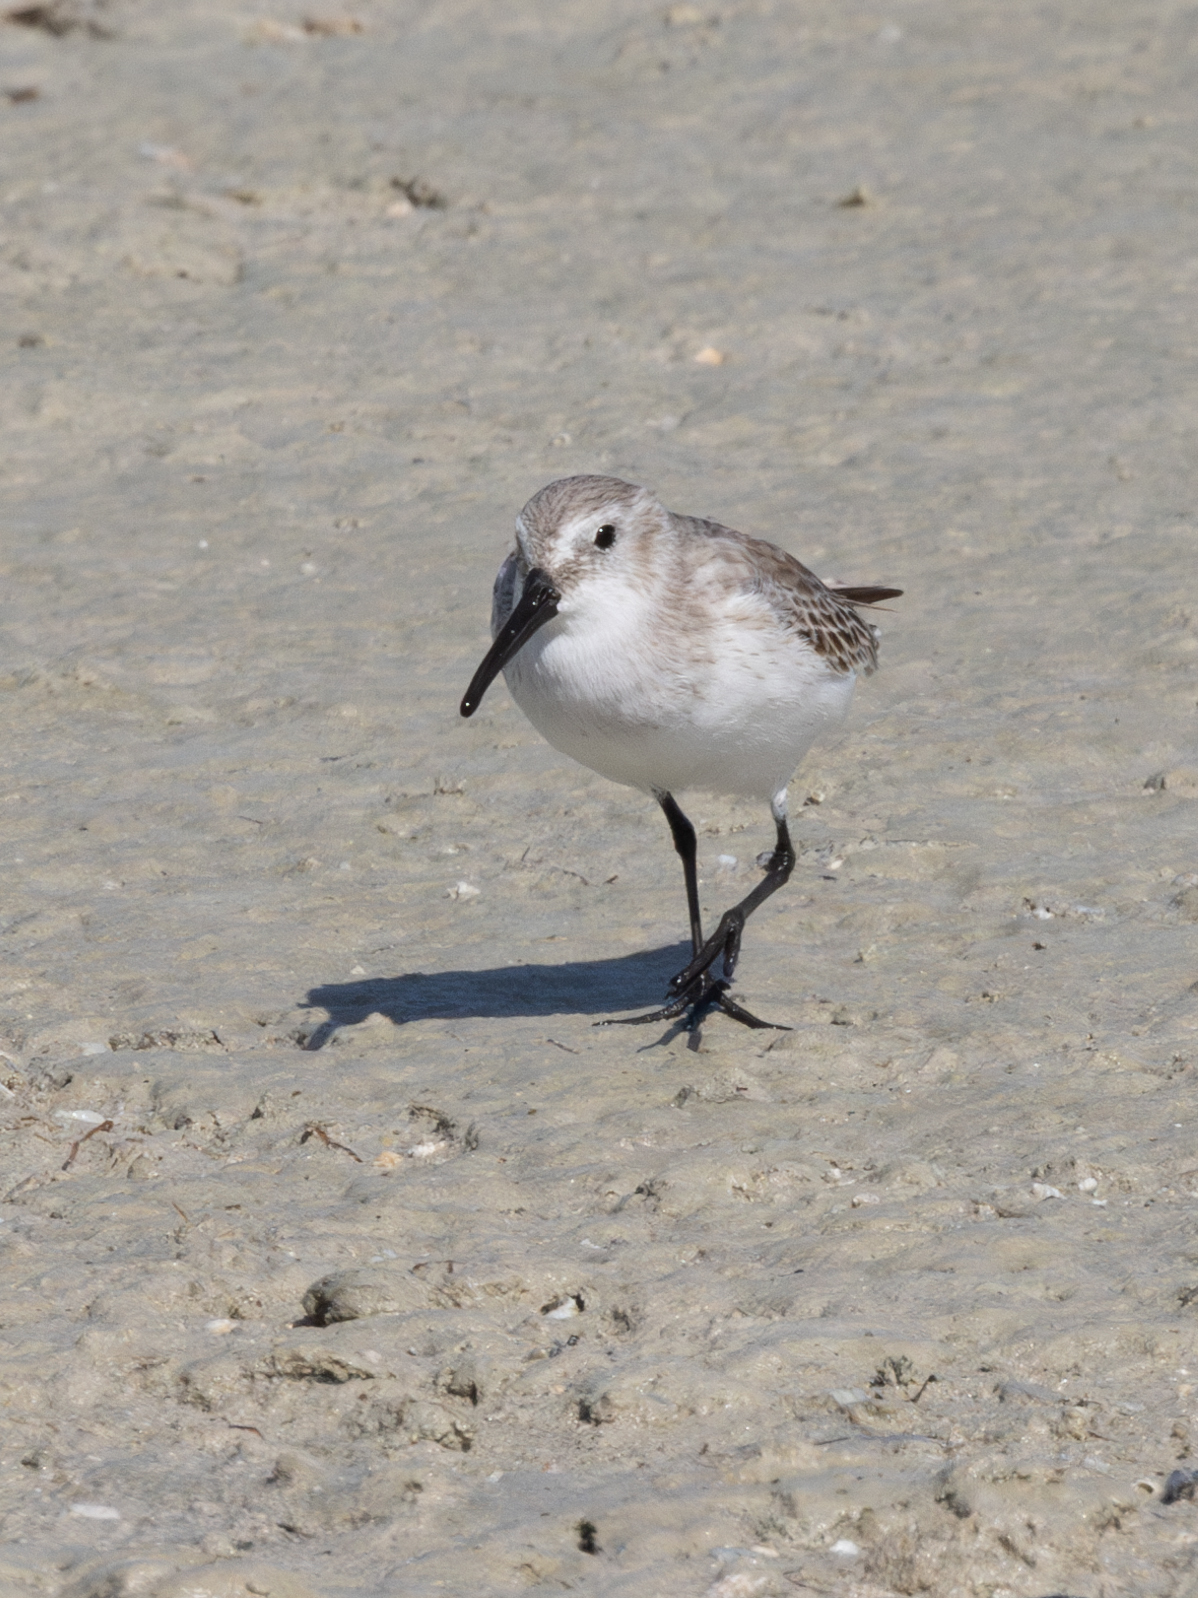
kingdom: Animalia
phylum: Chordata
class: Aves
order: Charadriiformes
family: Scolopacidae
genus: Calidris
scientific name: Calidris alpina
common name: Dunlin
